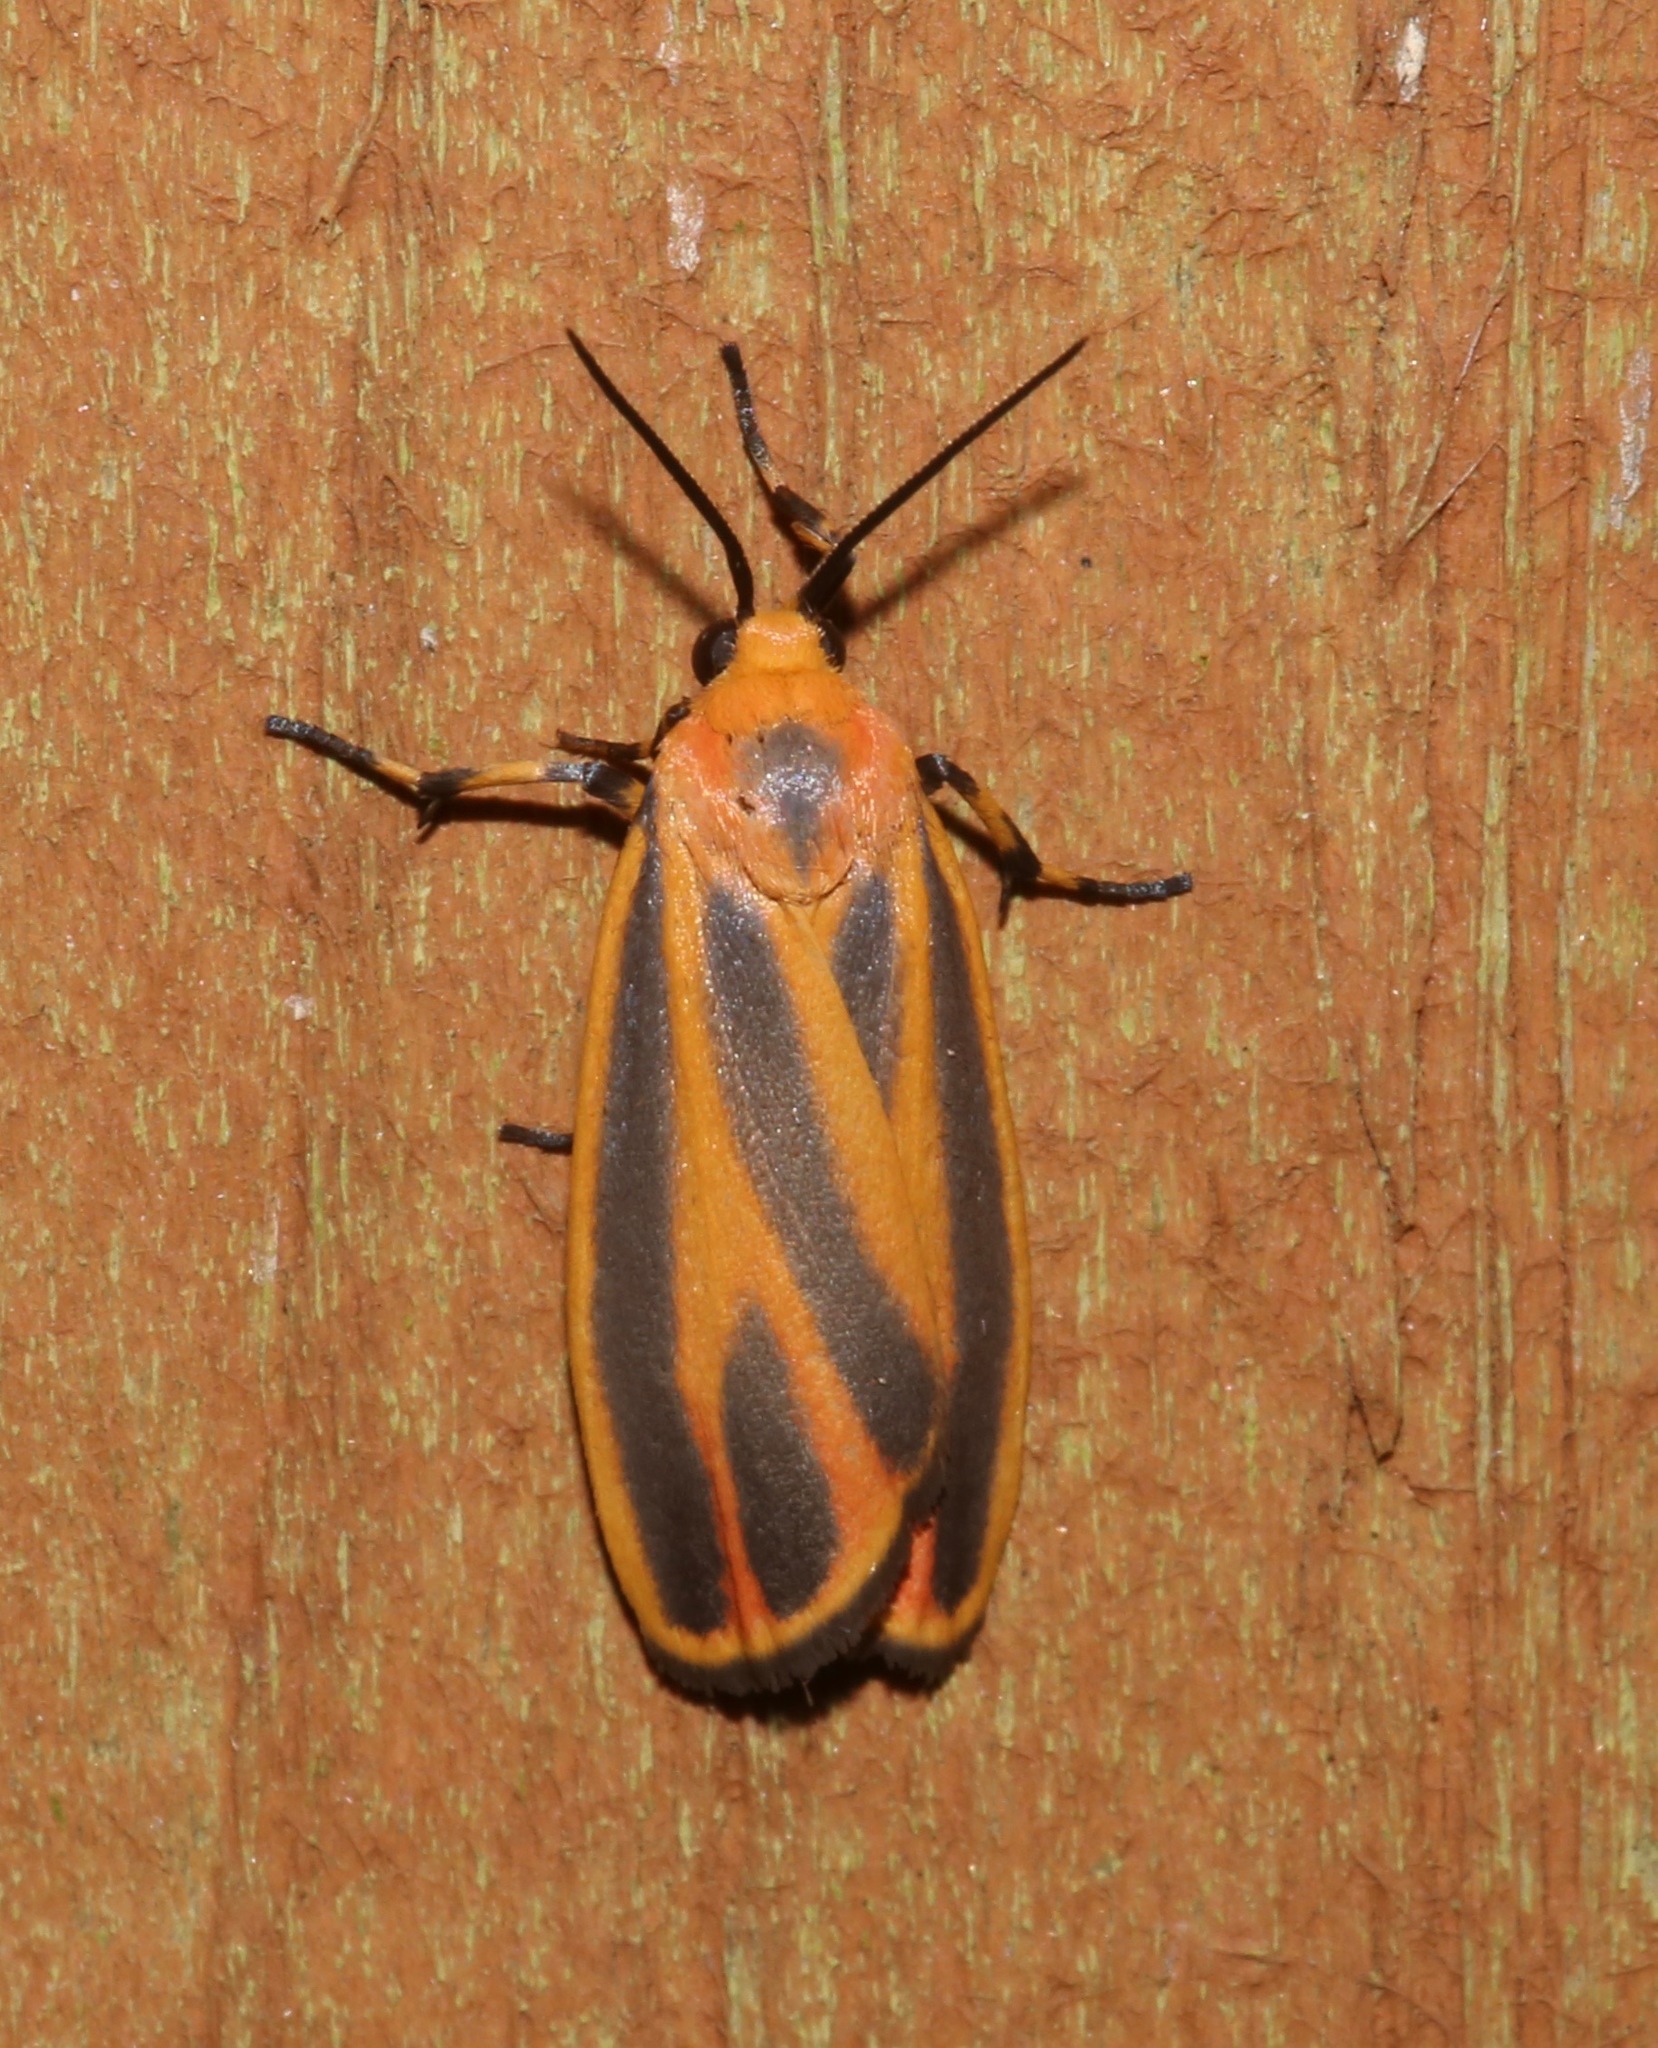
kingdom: Animalia
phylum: Arthropoda
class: Insecta
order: Lepidoptera
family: Erebidae
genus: Hypoprepia
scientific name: Hypoprepia fucosa
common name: Painted lichen moth
